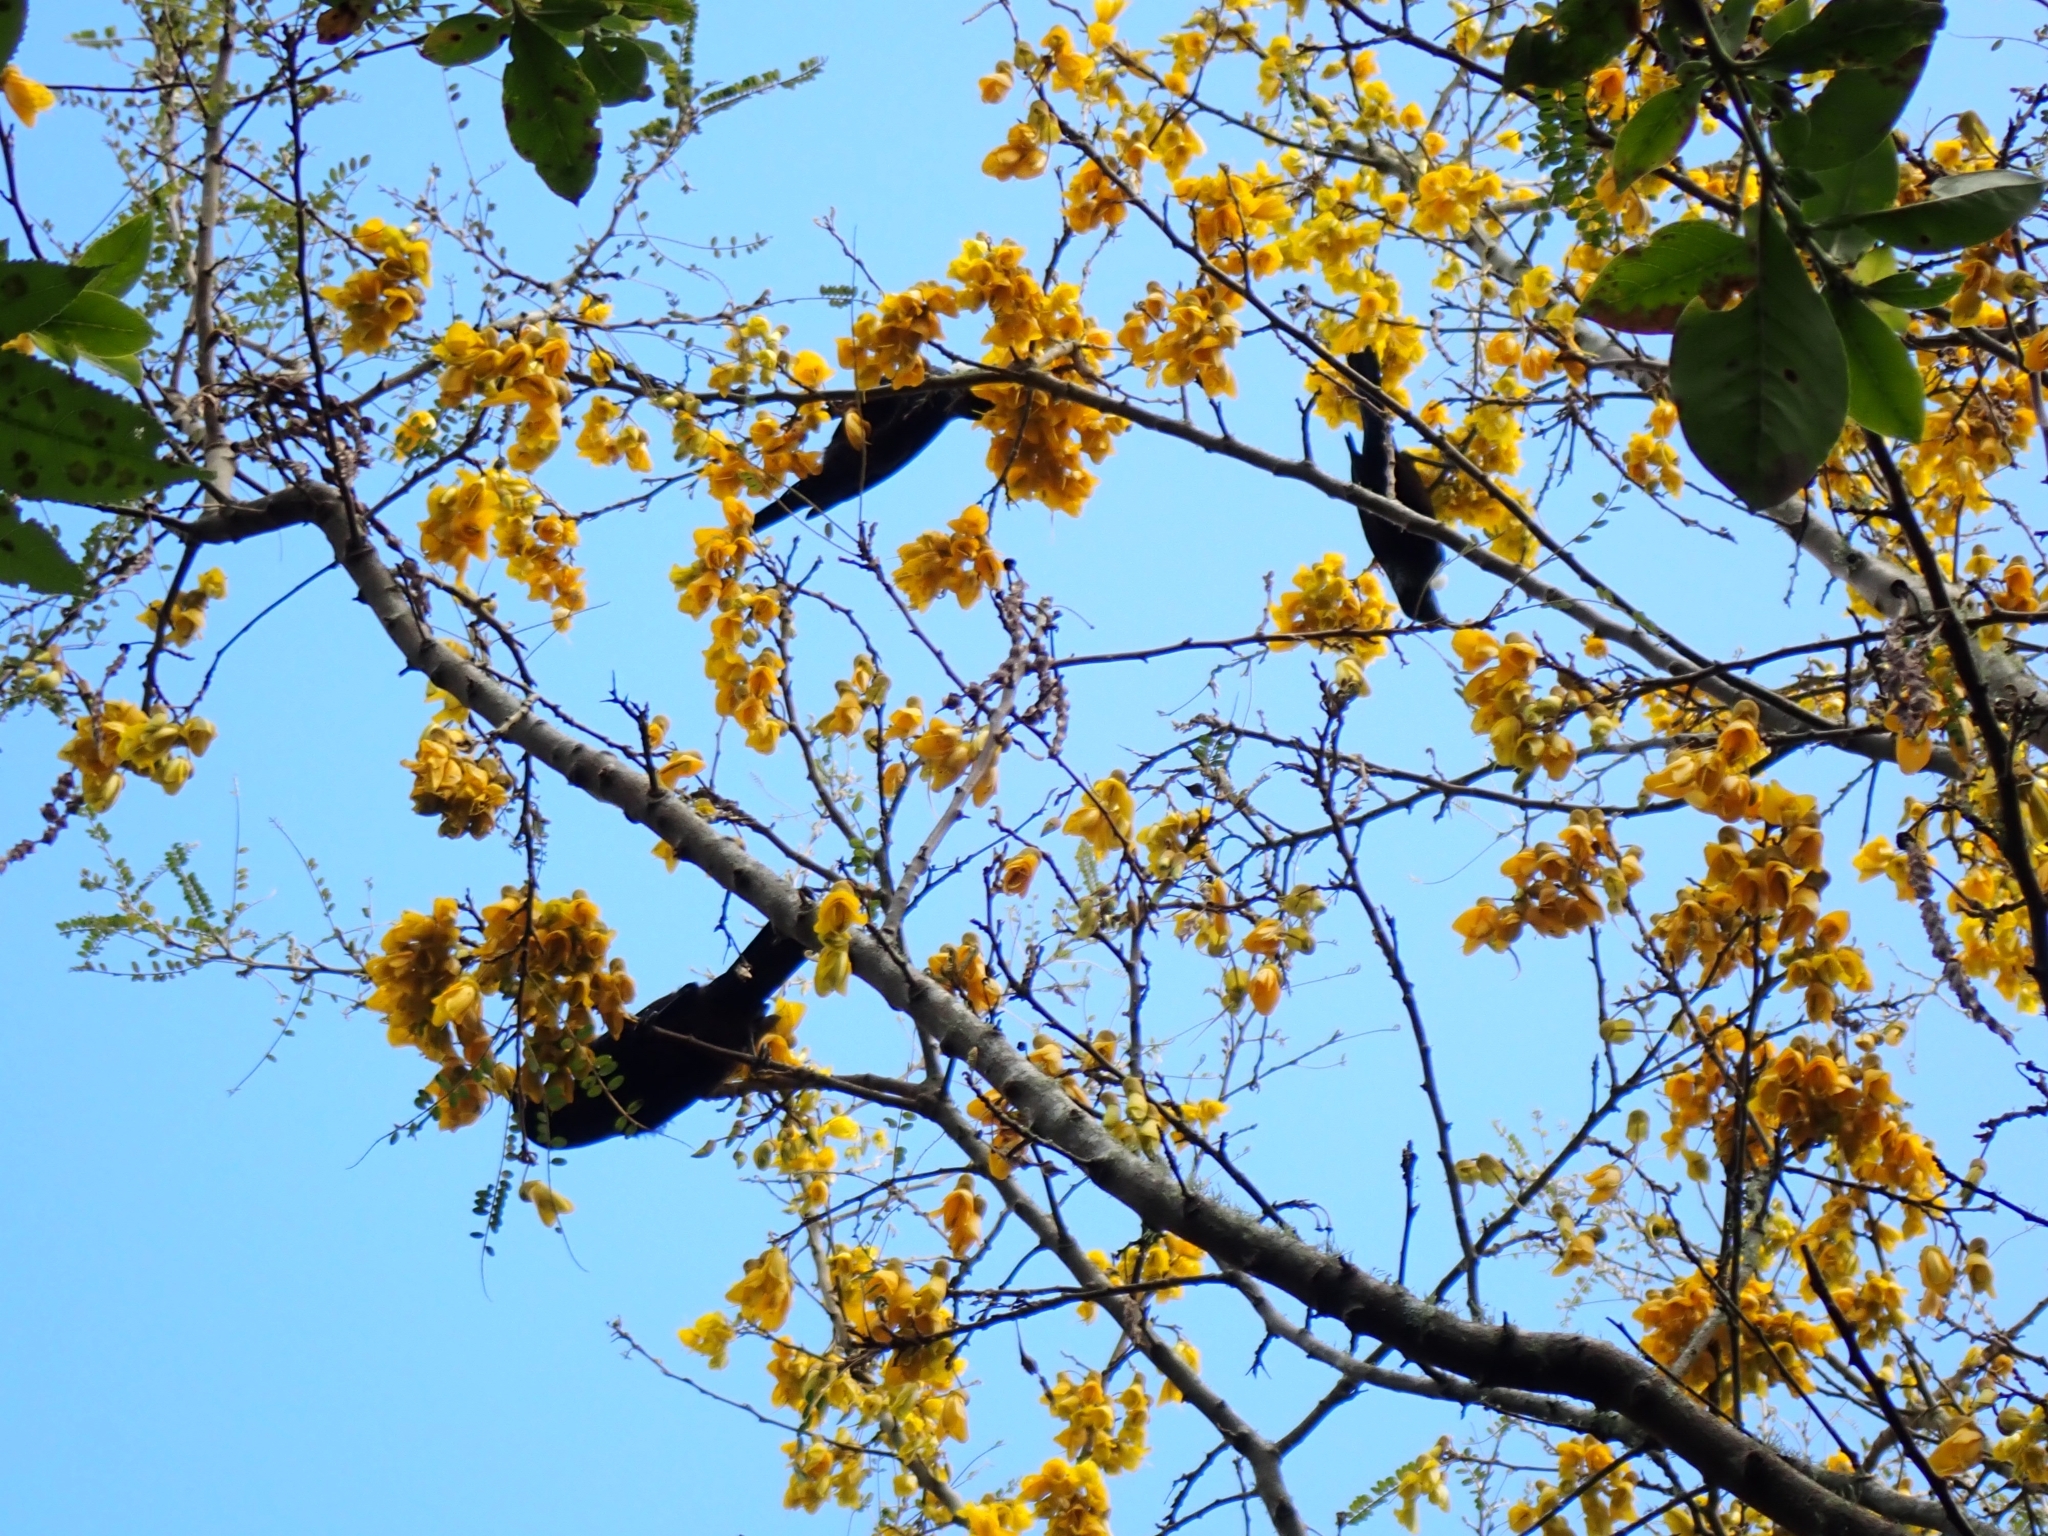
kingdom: Animalia
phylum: Chordata
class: Aves
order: Passeriformes
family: Meliphagidae
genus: Prosthemadera
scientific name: Prosthemadera novaeseelandiae
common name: Tui
